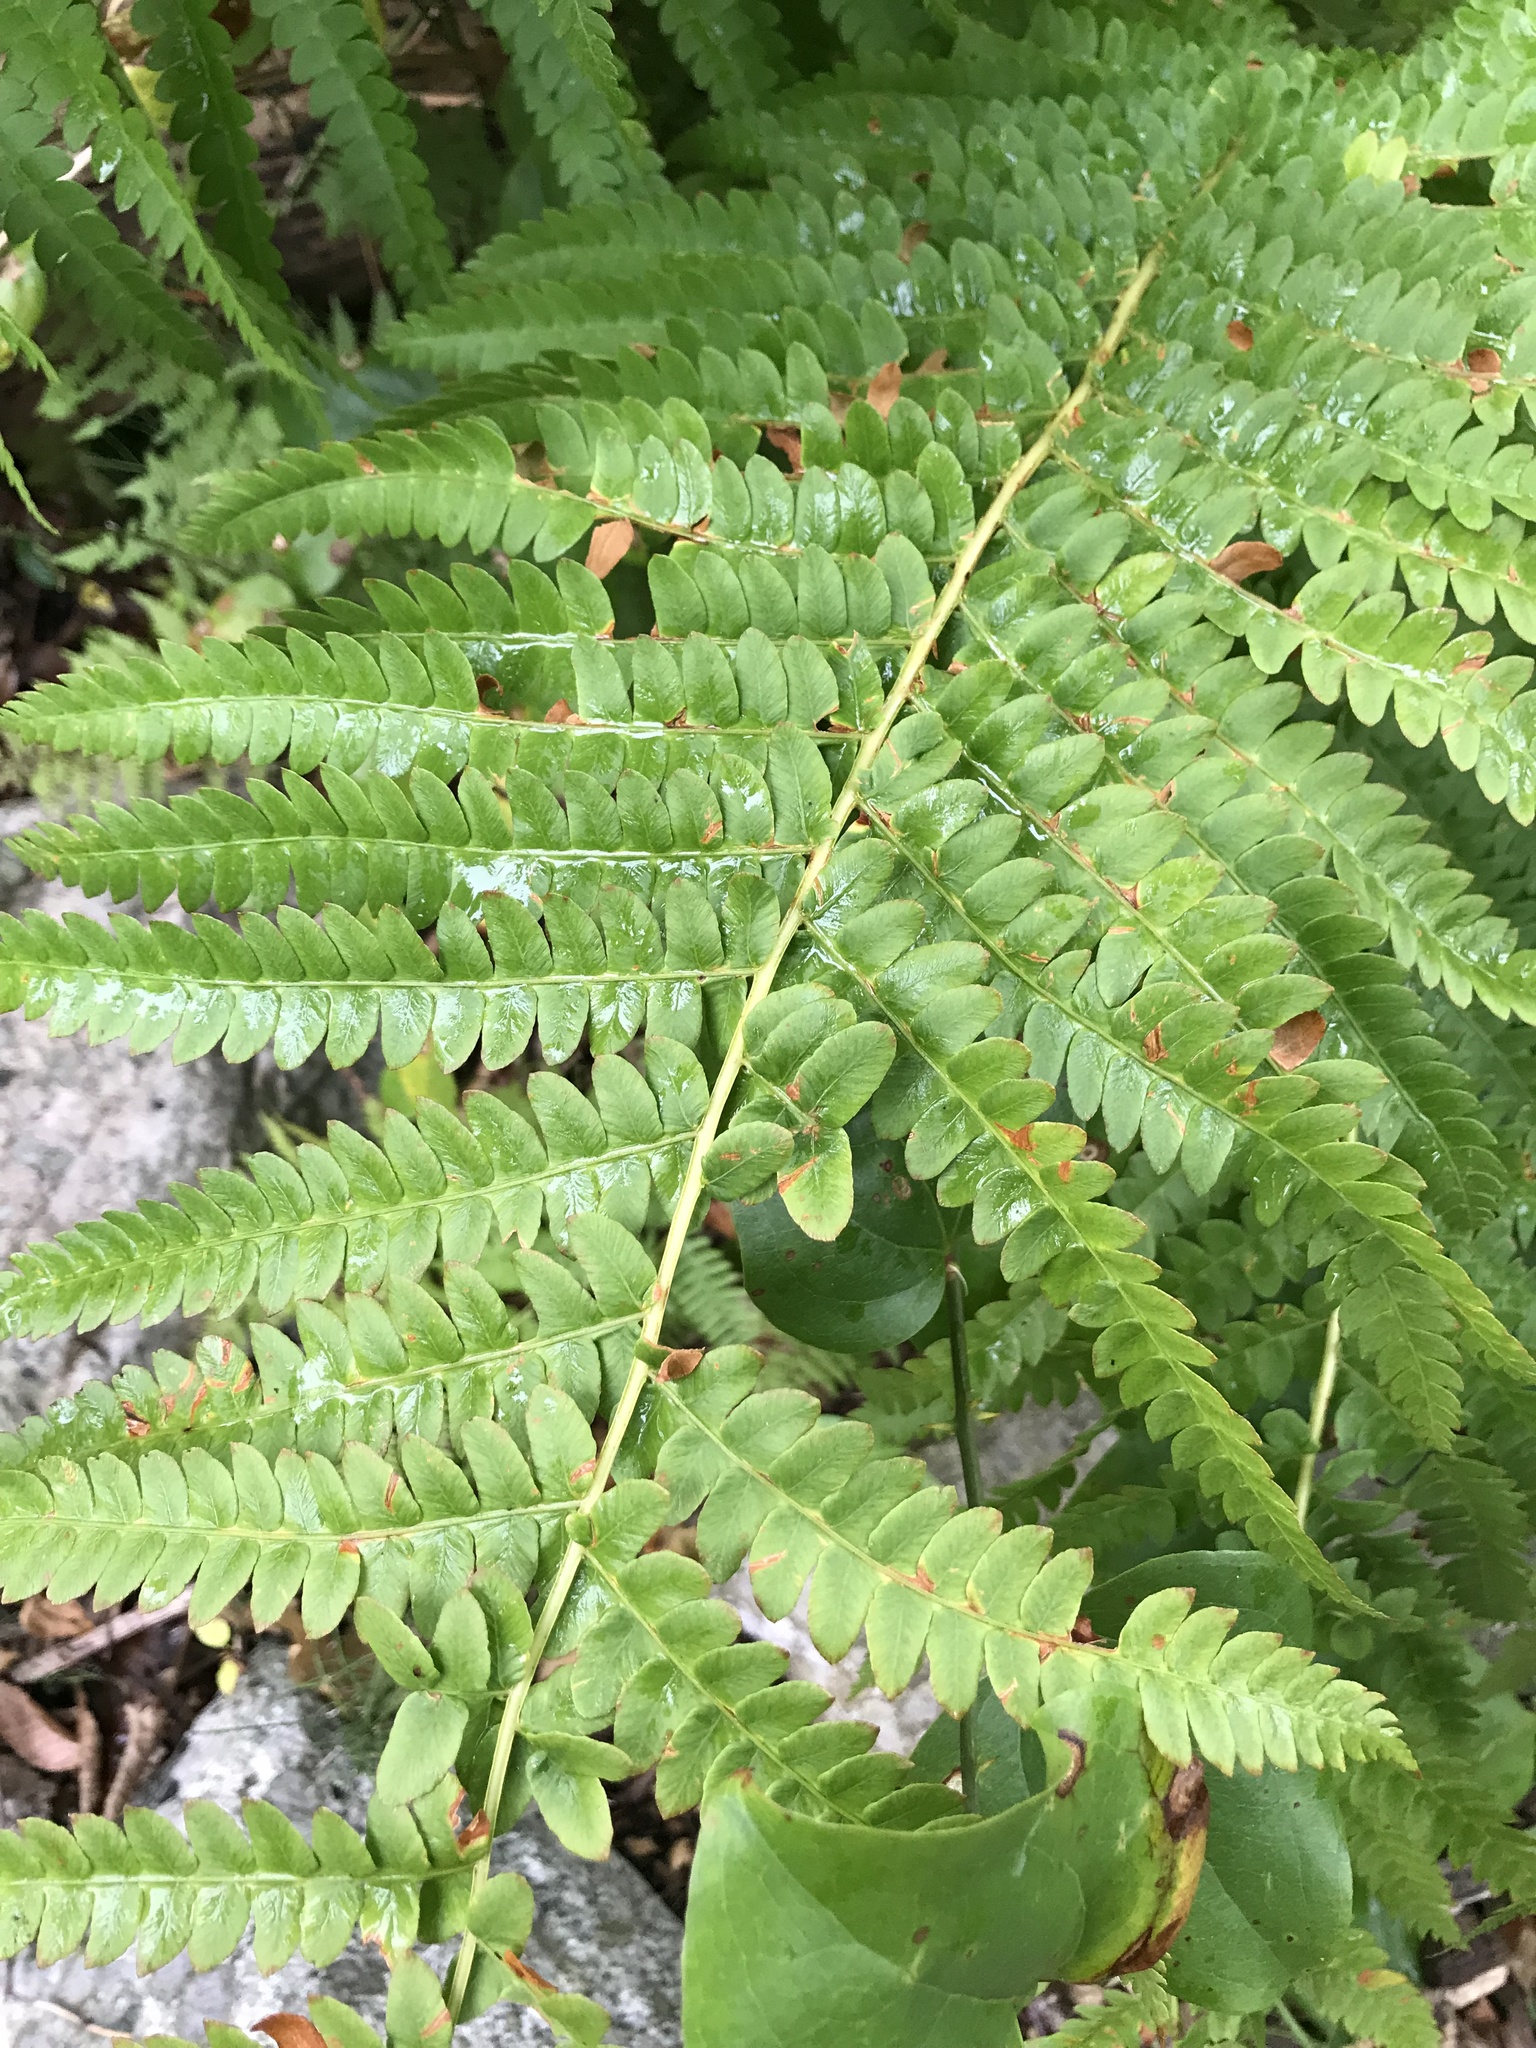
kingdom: Plantae
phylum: Tracheophyta
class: Polypodiopsida
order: Osmundales
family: Osmundaceae
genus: Osmundastrum
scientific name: Osmundastrum cinnamomeum
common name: Cinnamon fern
